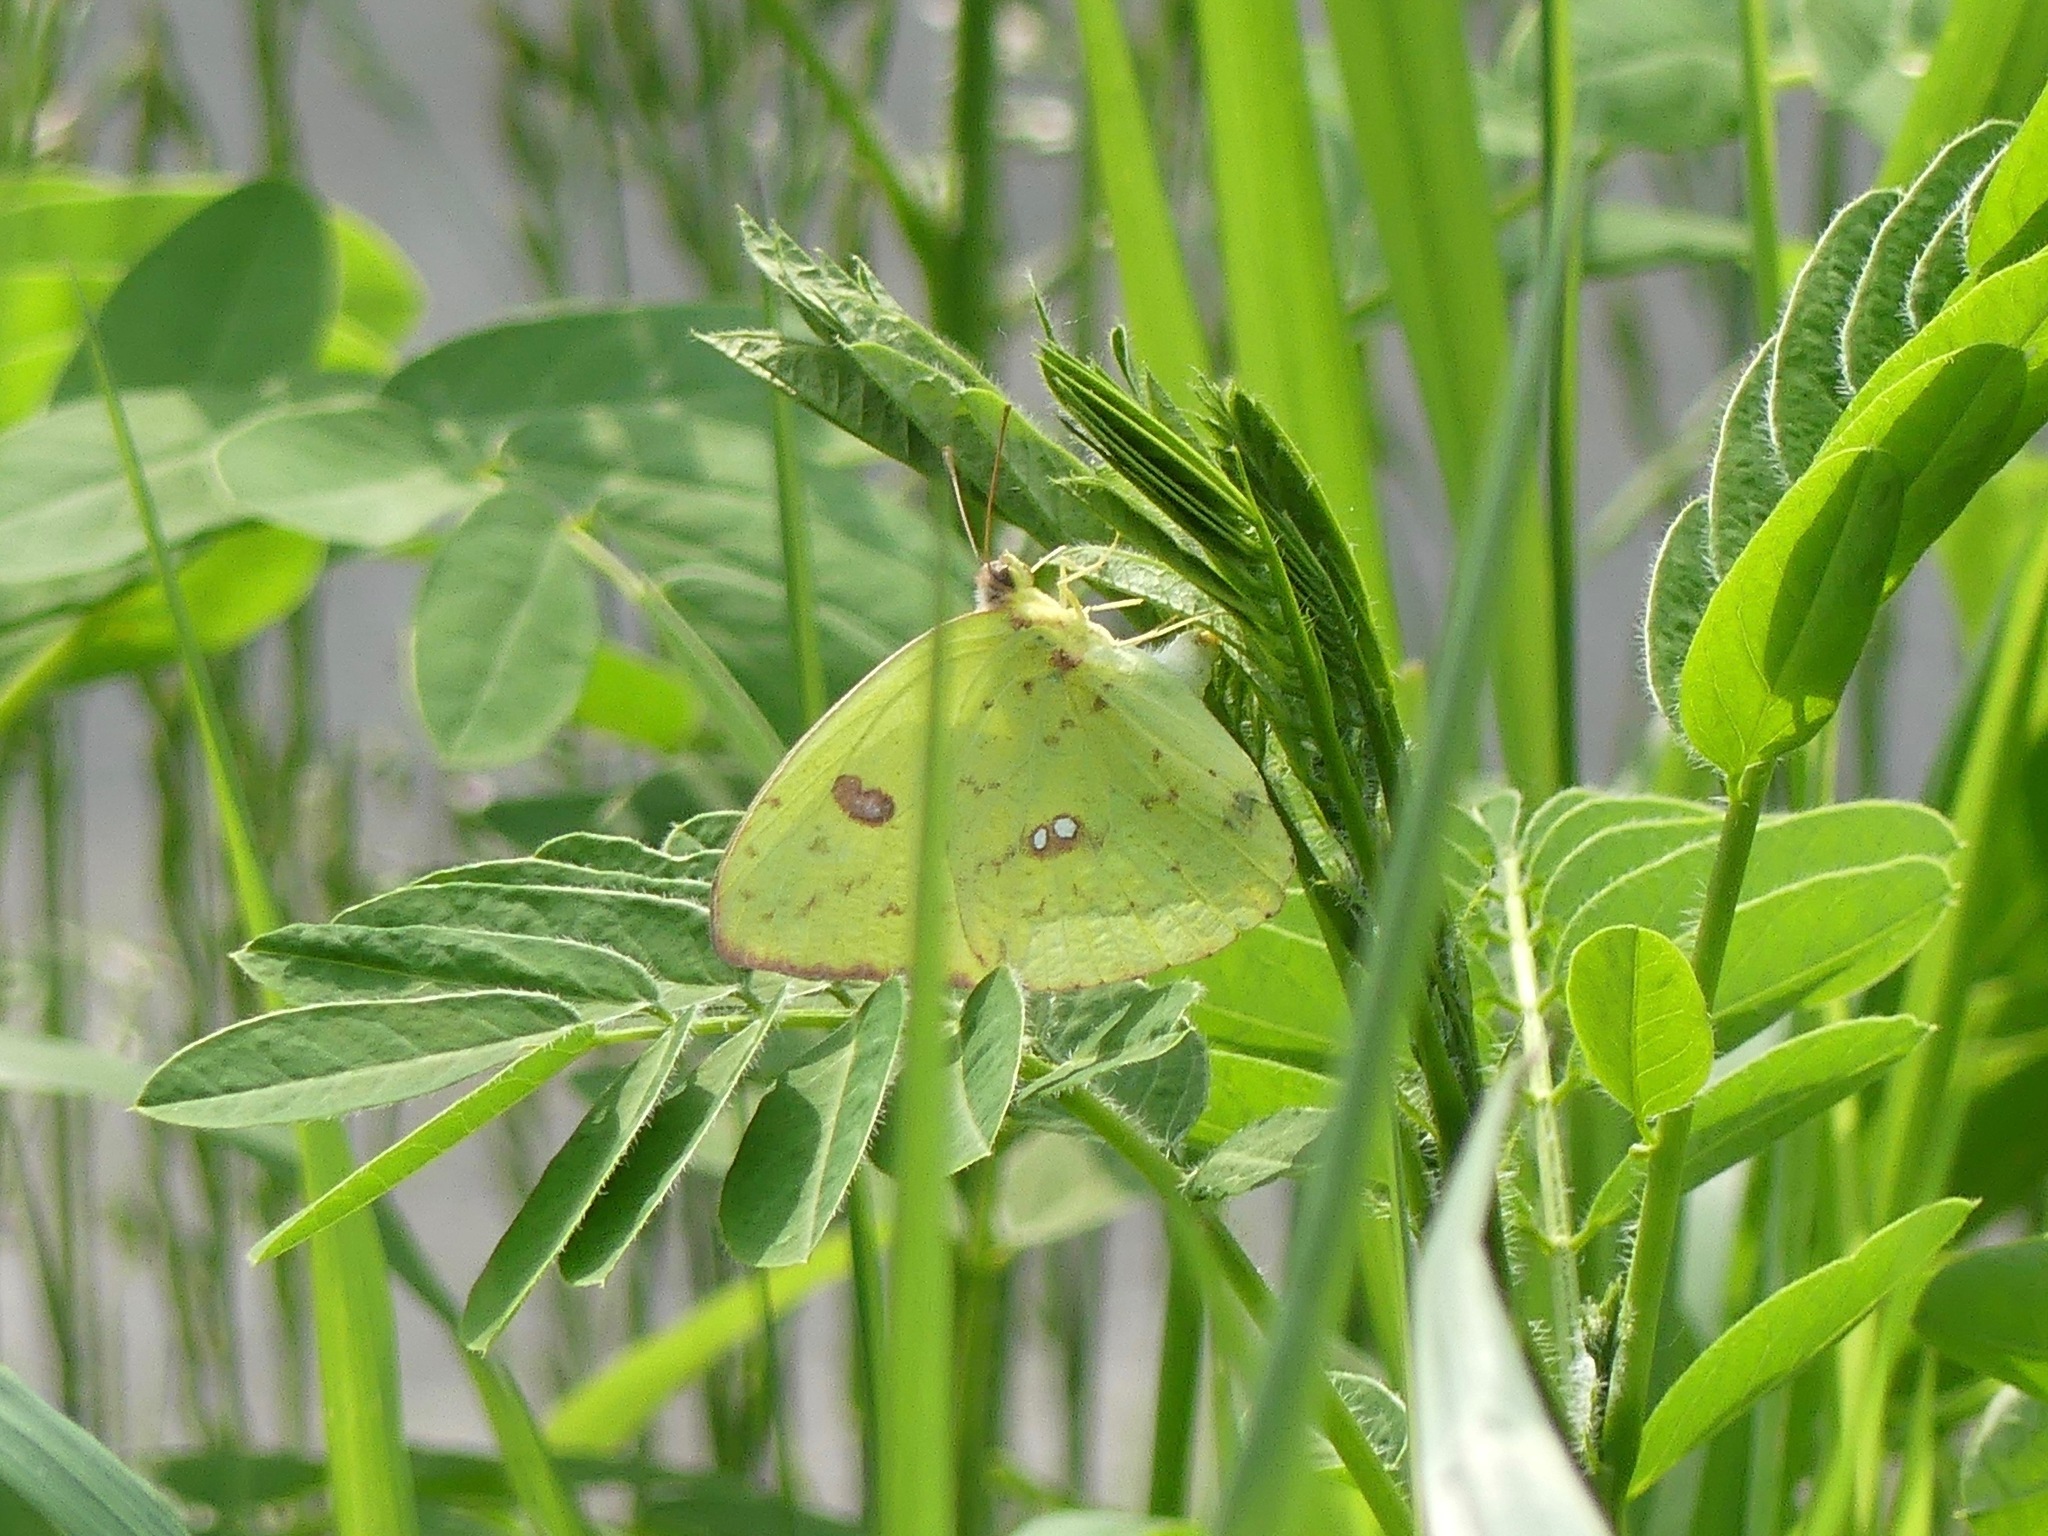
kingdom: Animalia
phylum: Arthropoda
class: Insecta
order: Lepidoptera
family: Pieridae
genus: Phoebis
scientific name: Phoebis sennae
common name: Cloudless sulphur
